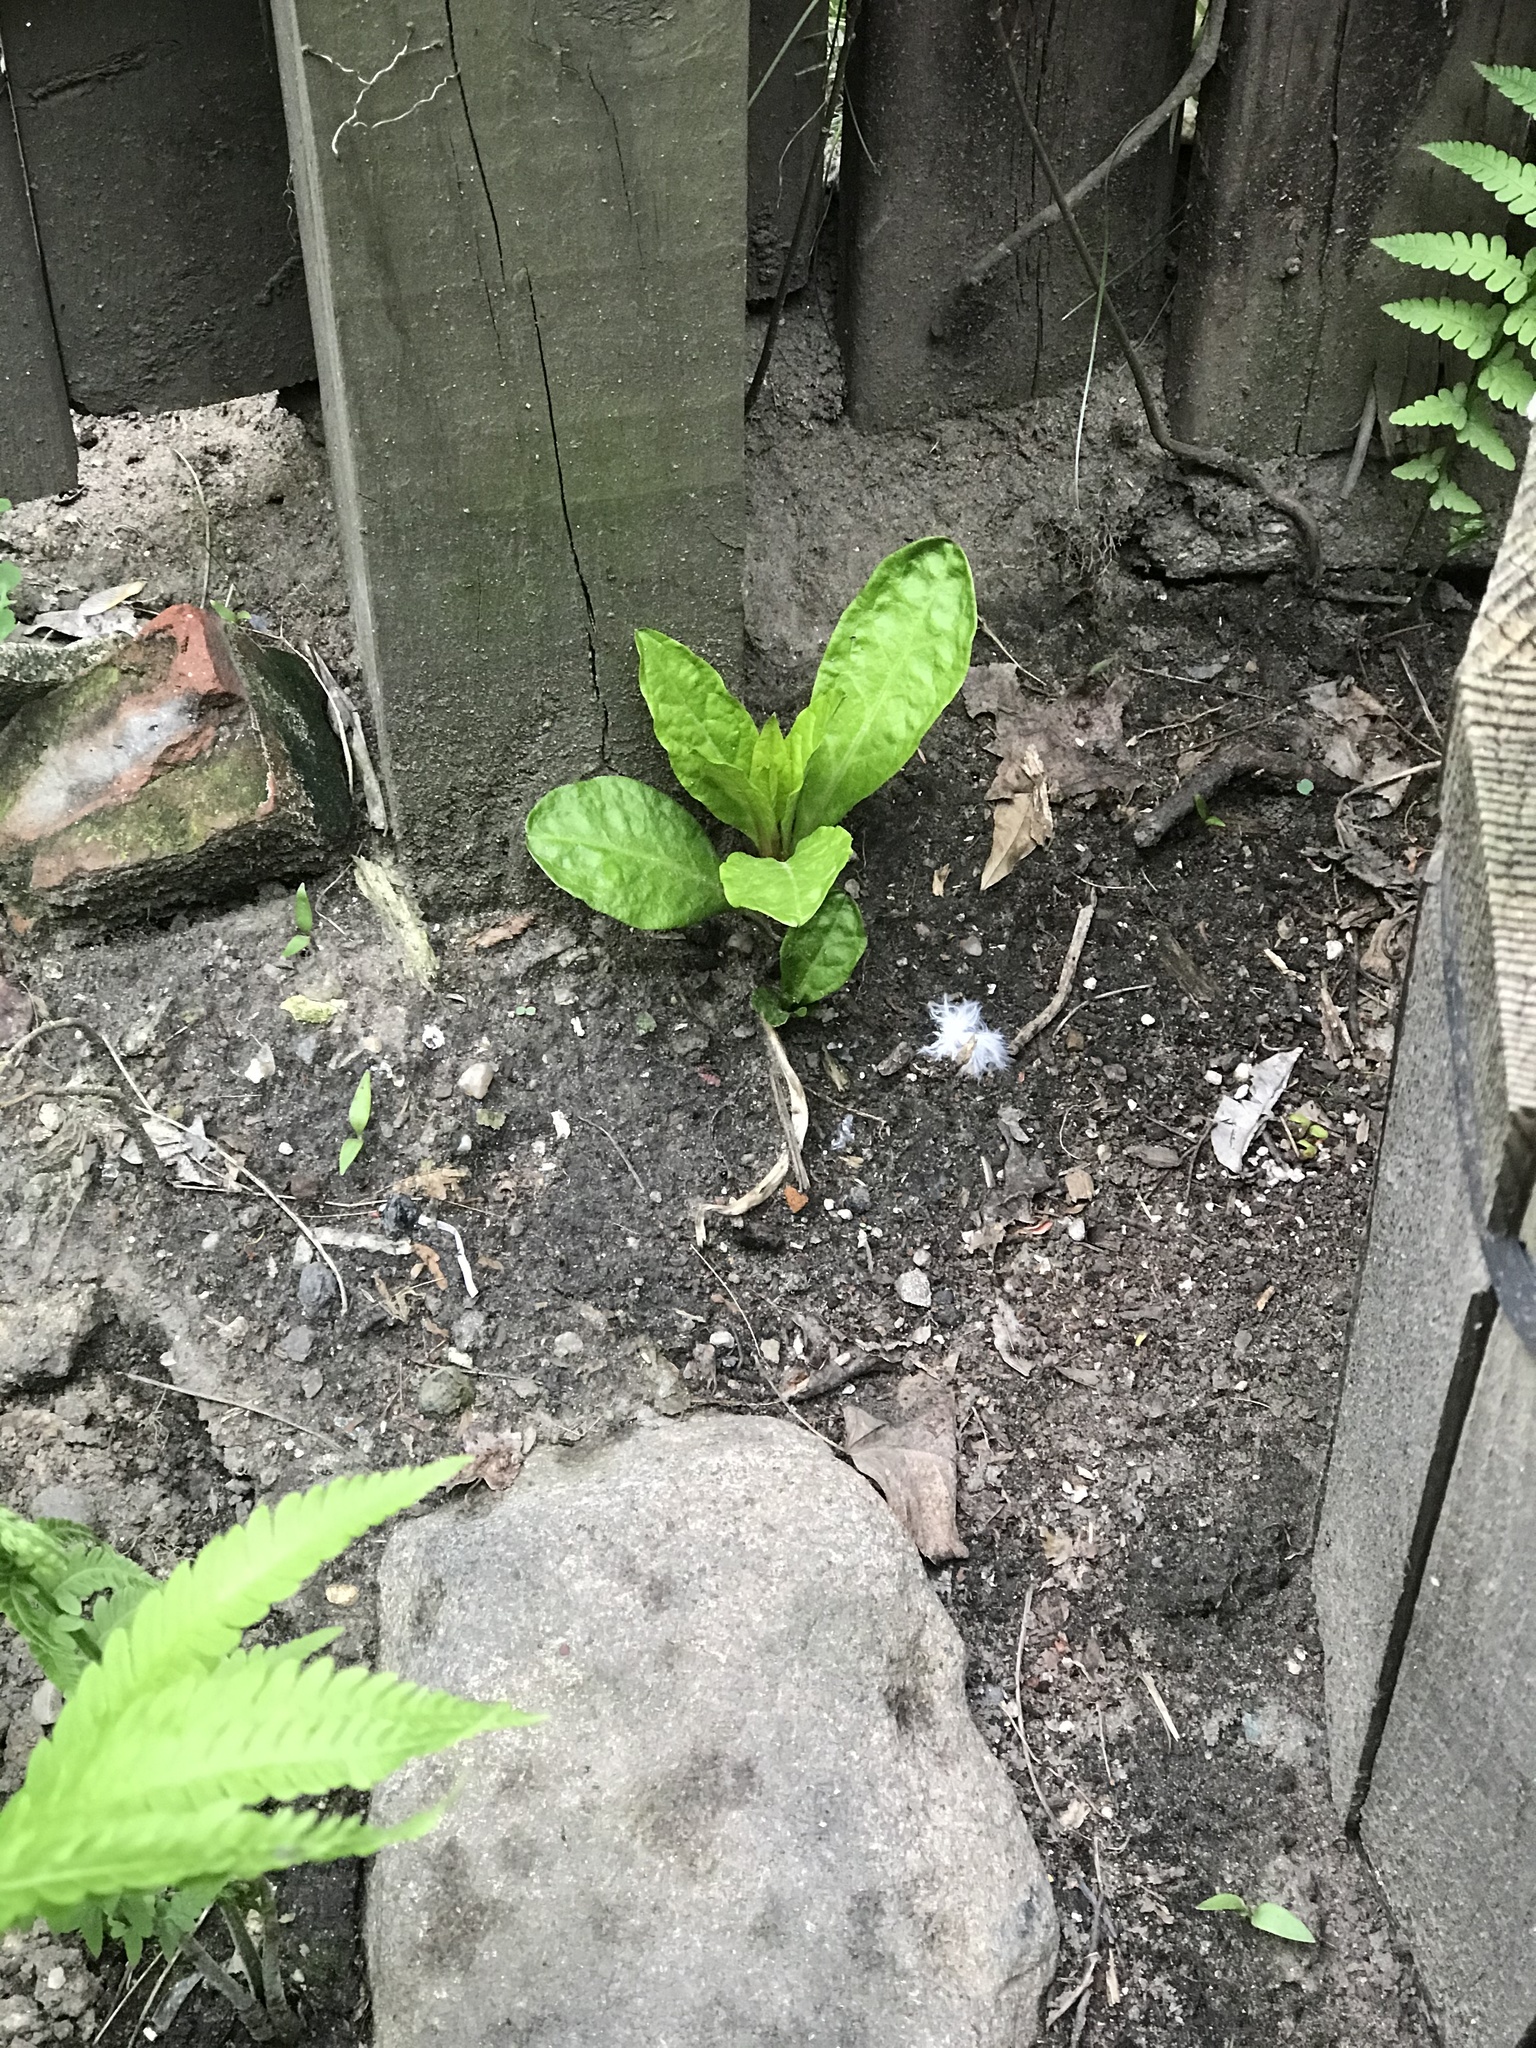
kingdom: Plantae
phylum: Tracheophyta
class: Magnoliopsida
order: Caryophyllales
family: Phytolaccaceae
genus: Phytolacca
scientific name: Phytolacca americana
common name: American pokeweed
